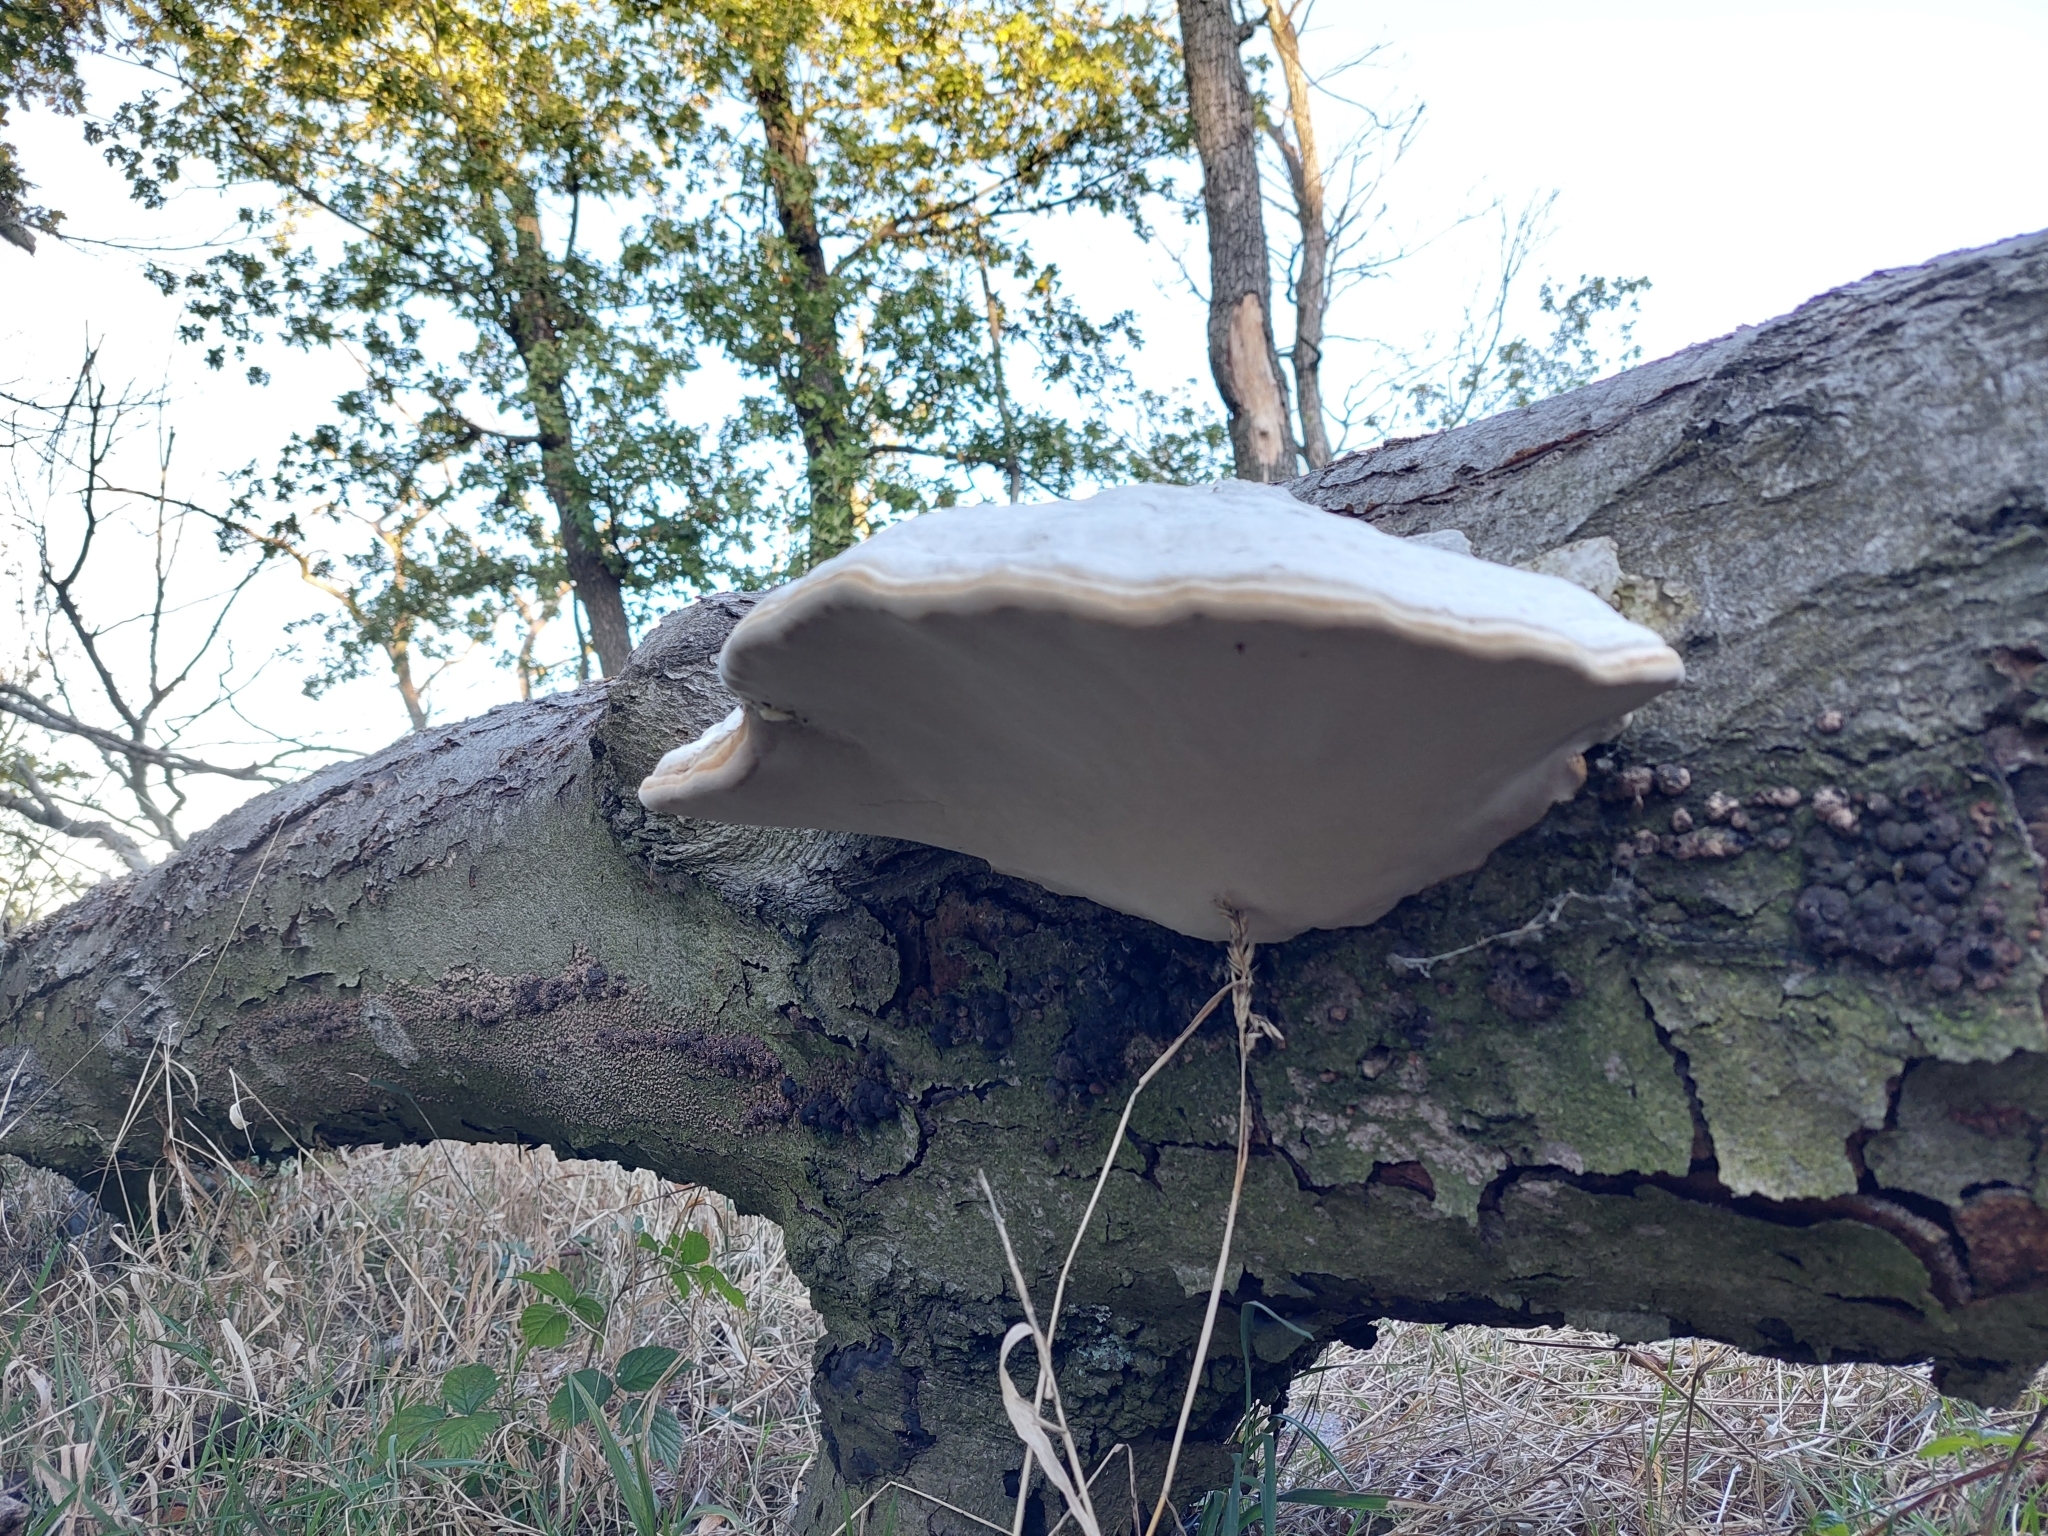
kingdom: Fungi
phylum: Basidiomycota
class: Agaricomycetes
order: Polyporales
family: Polyporaceae
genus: Fomes
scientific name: Fomes fomentarius
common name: Hoof fungus
